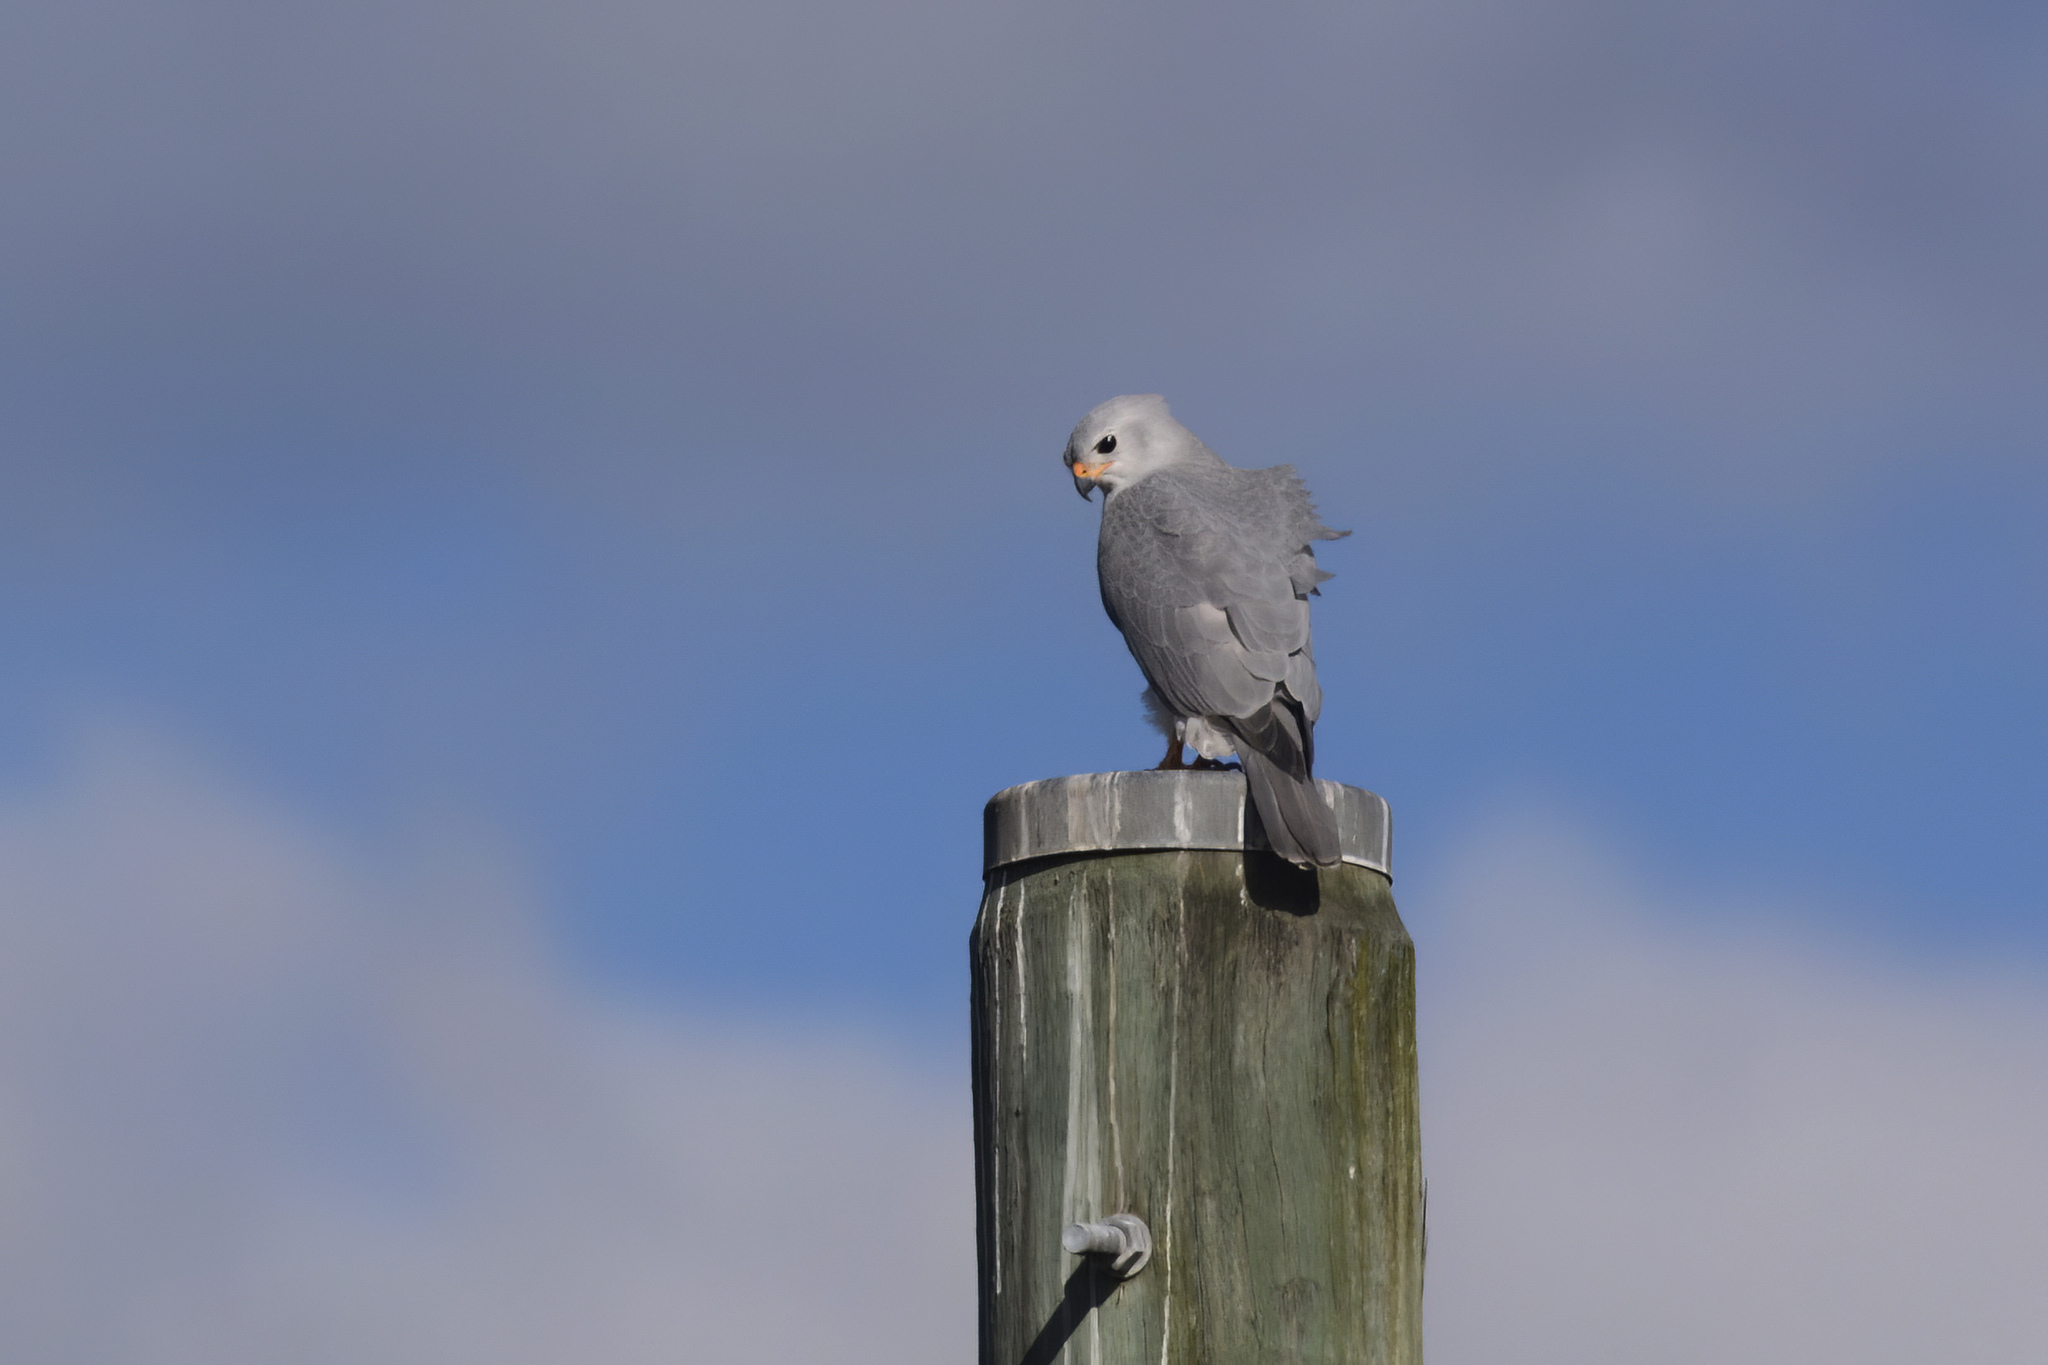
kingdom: Animalia
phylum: Chordata
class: Aves
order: Accipitriformes
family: Accipitridae
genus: Accipiter
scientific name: Accipiter novaehollandiae
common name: Grey goshawk
